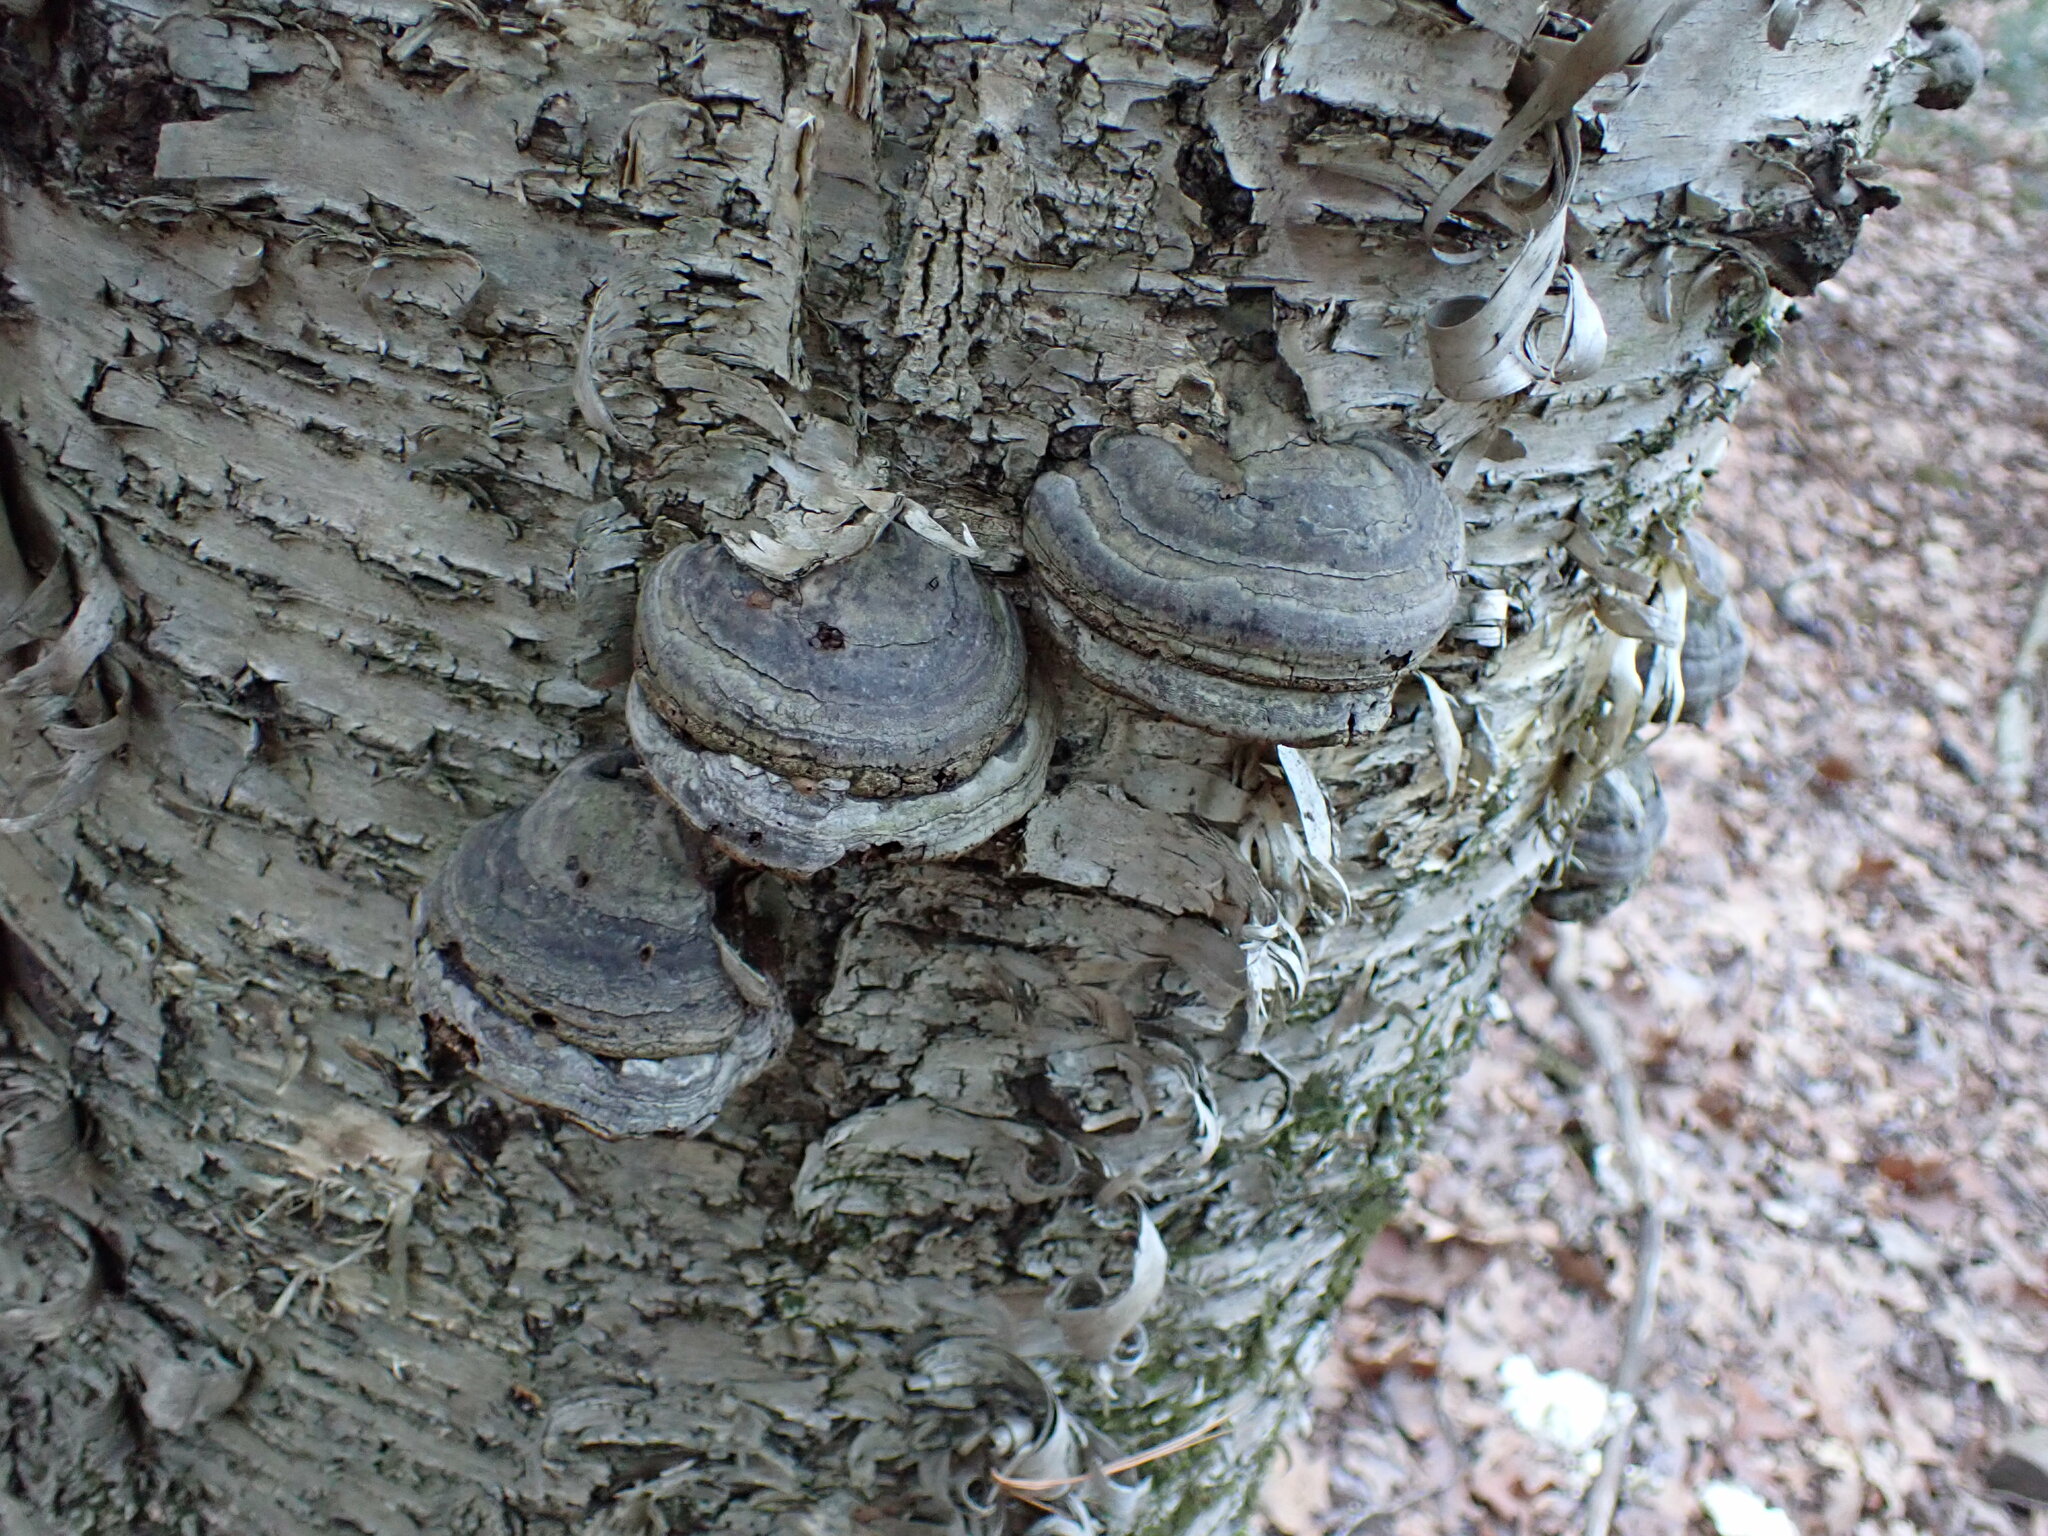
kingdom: Fungi
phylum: Basidiomycota
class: Agaricomycetes
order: Polyporales
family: Polyporaceae
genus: Fomes
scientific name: Fomes fomentarius
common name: Hoof fungus
